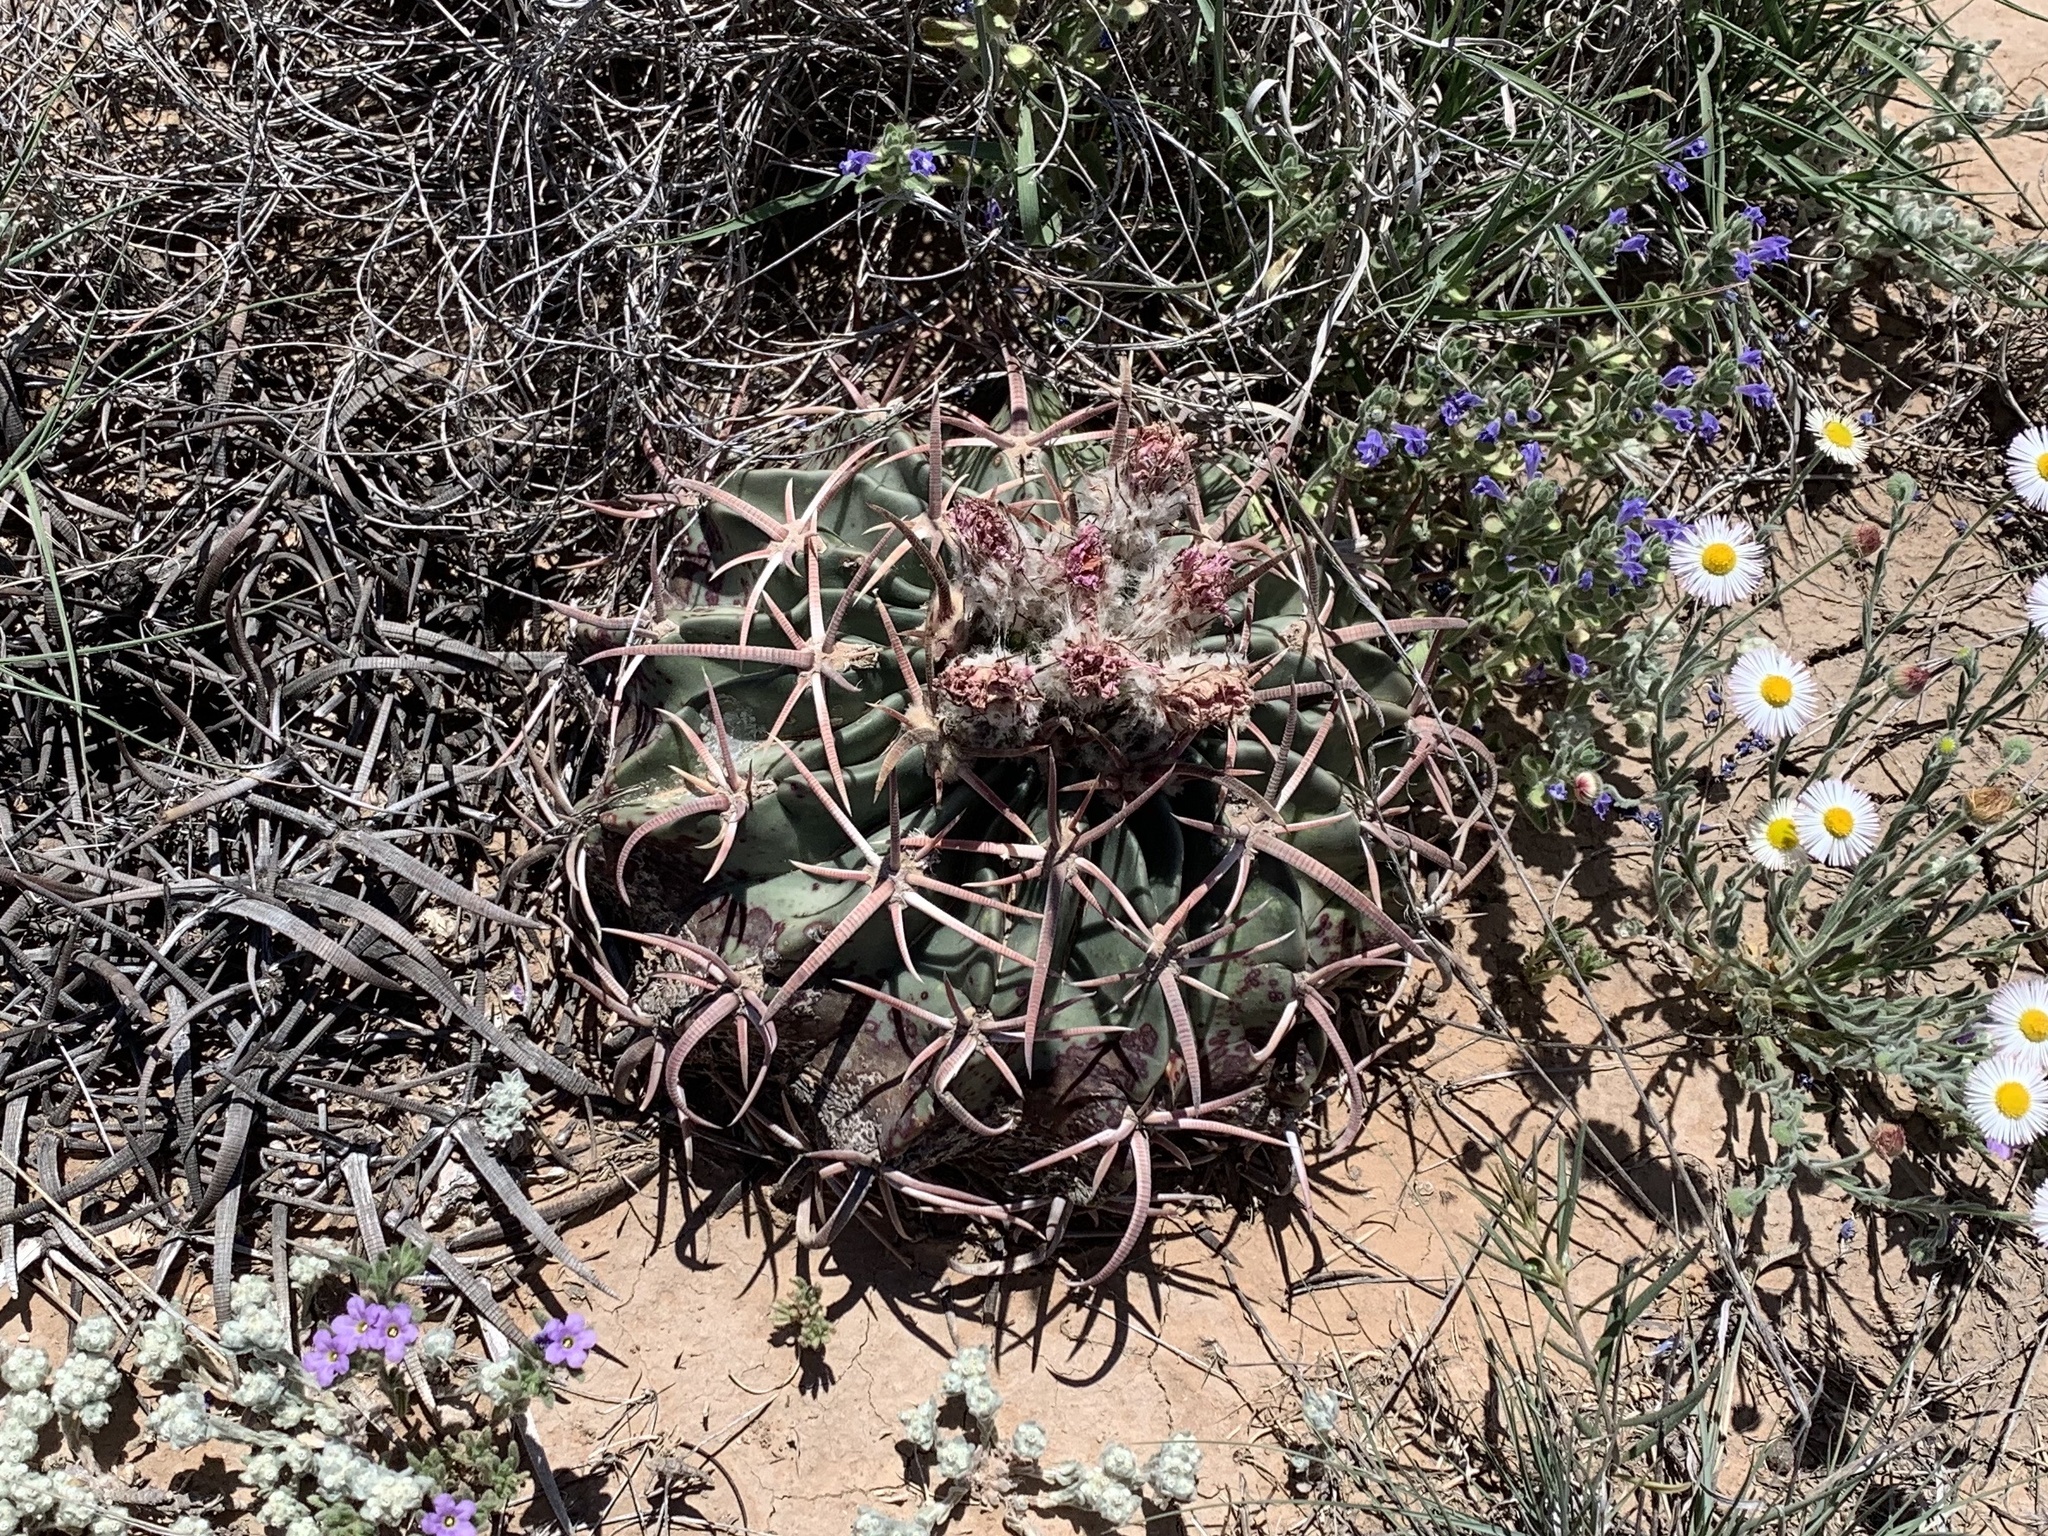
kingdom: Plantae
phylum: Tracheophyta
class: Magnoliopsida
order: Caryophyllales
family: Cactaceae
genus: Echinocactus
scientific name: Echinocactus texensis
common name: Devil's pincushion
